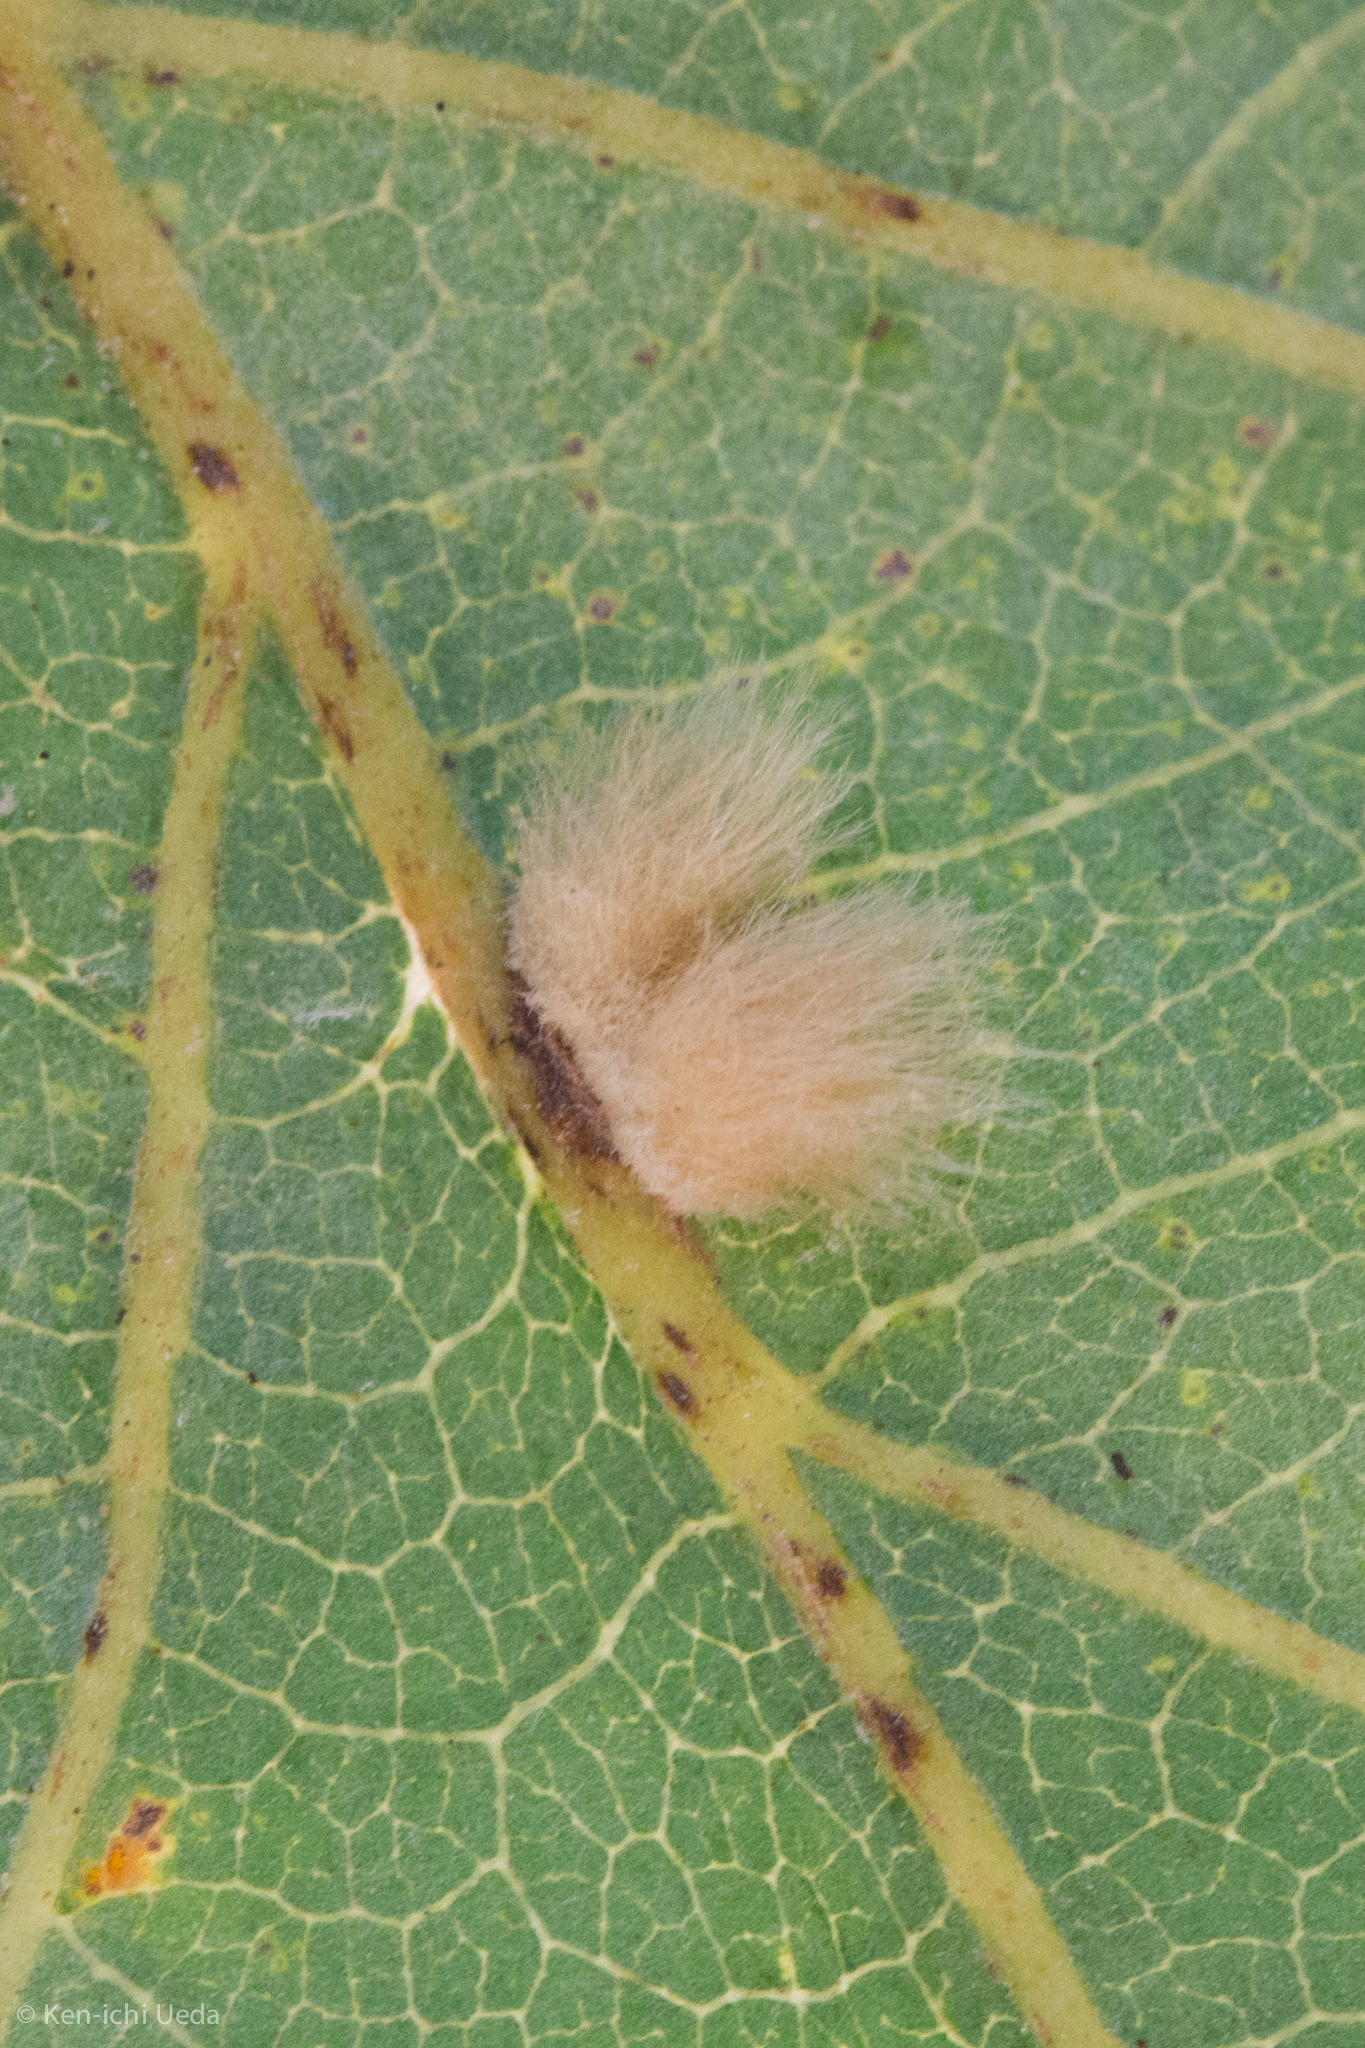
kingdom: Animalia
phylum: Arthropoda
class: Insecta
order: Hymenoptera
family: Cynipidae
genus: Andricus
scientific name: Andricus Druon fullawayi
